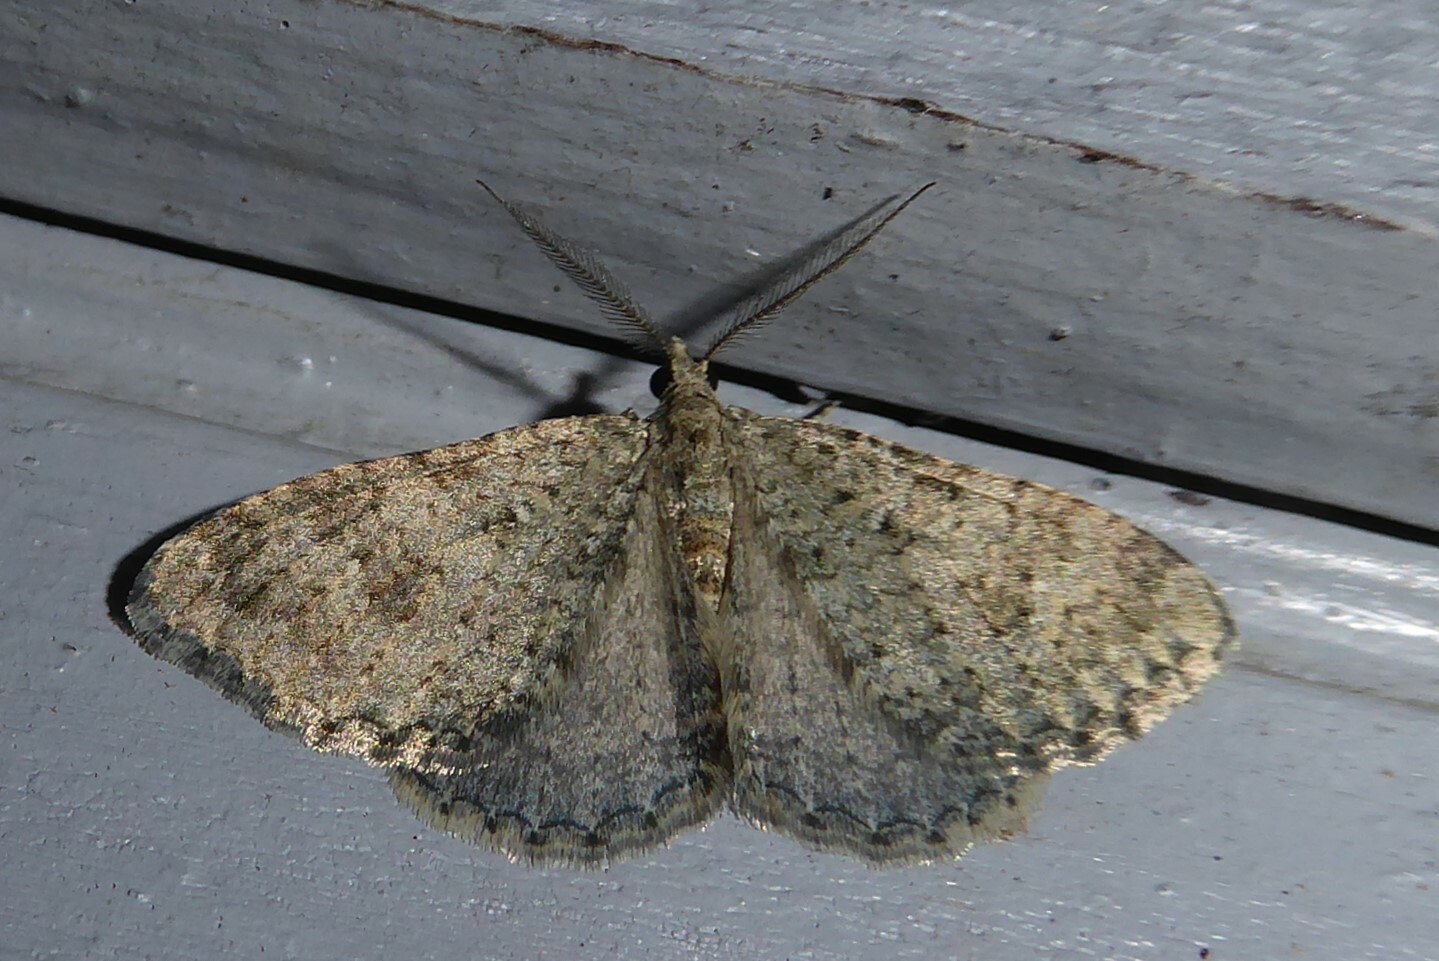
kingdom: Animalia
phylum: Arthropoda
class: Insecta
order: Lepidoptera
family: Geometridae
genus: Helastia
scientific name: Helastia corcularia
